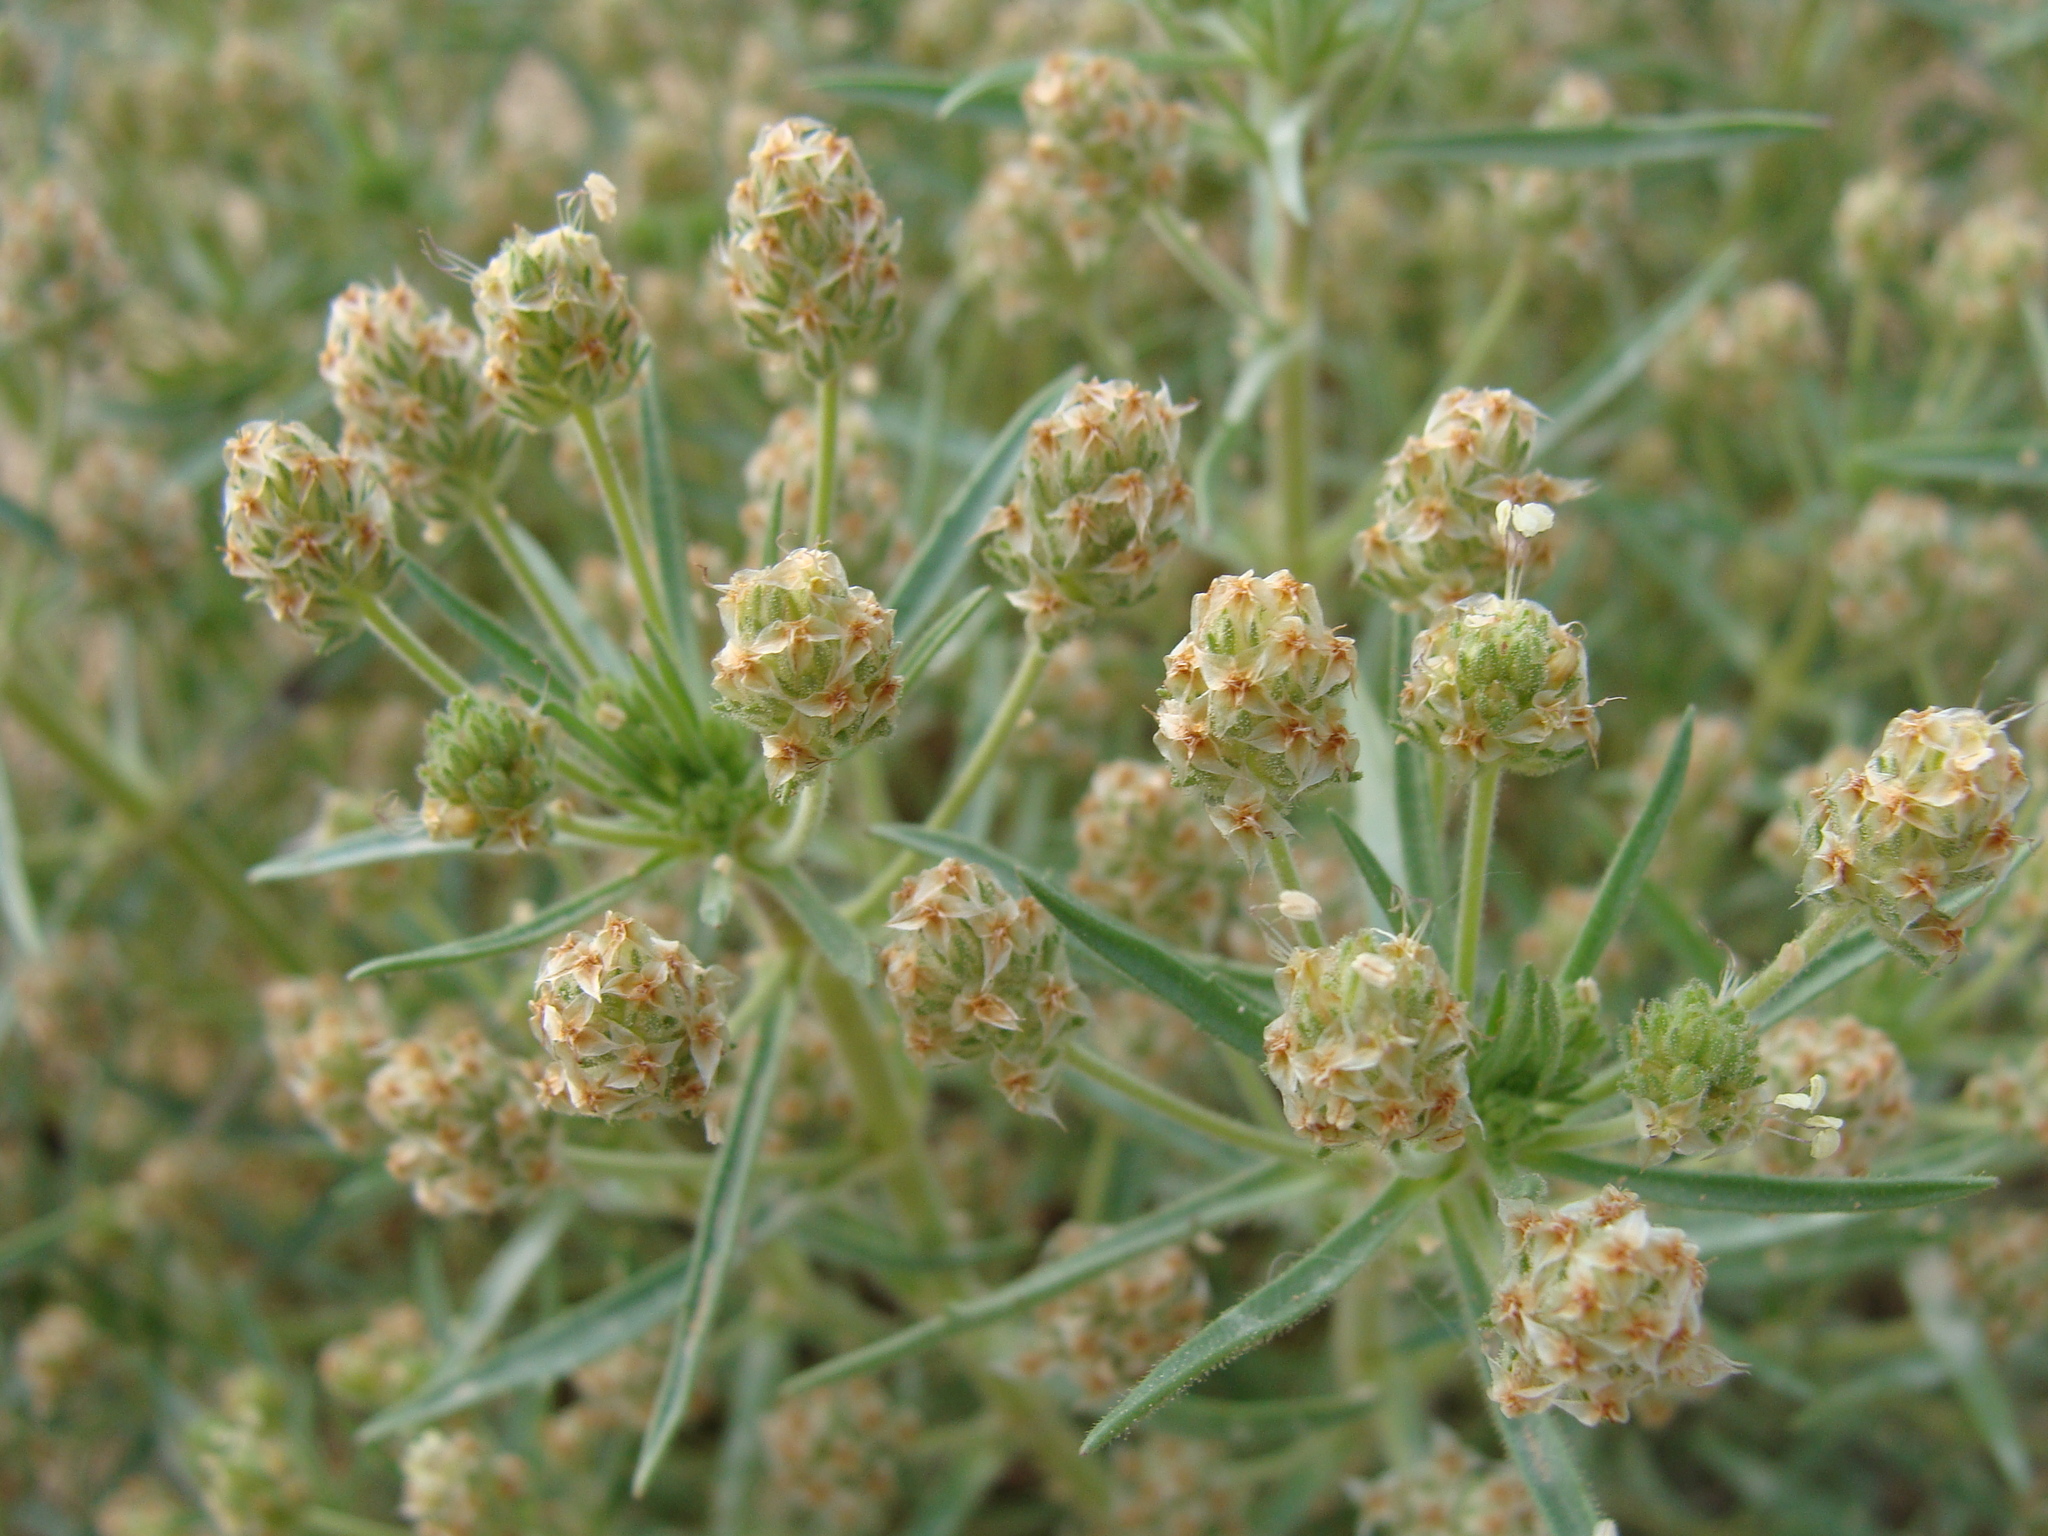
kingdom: Plantae
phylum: Tracheophyta
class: Magnoliopsida
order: Lamiales
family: Plantaginaceae
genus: Plantago
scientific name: Plantago afra
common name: Glandular plantain
